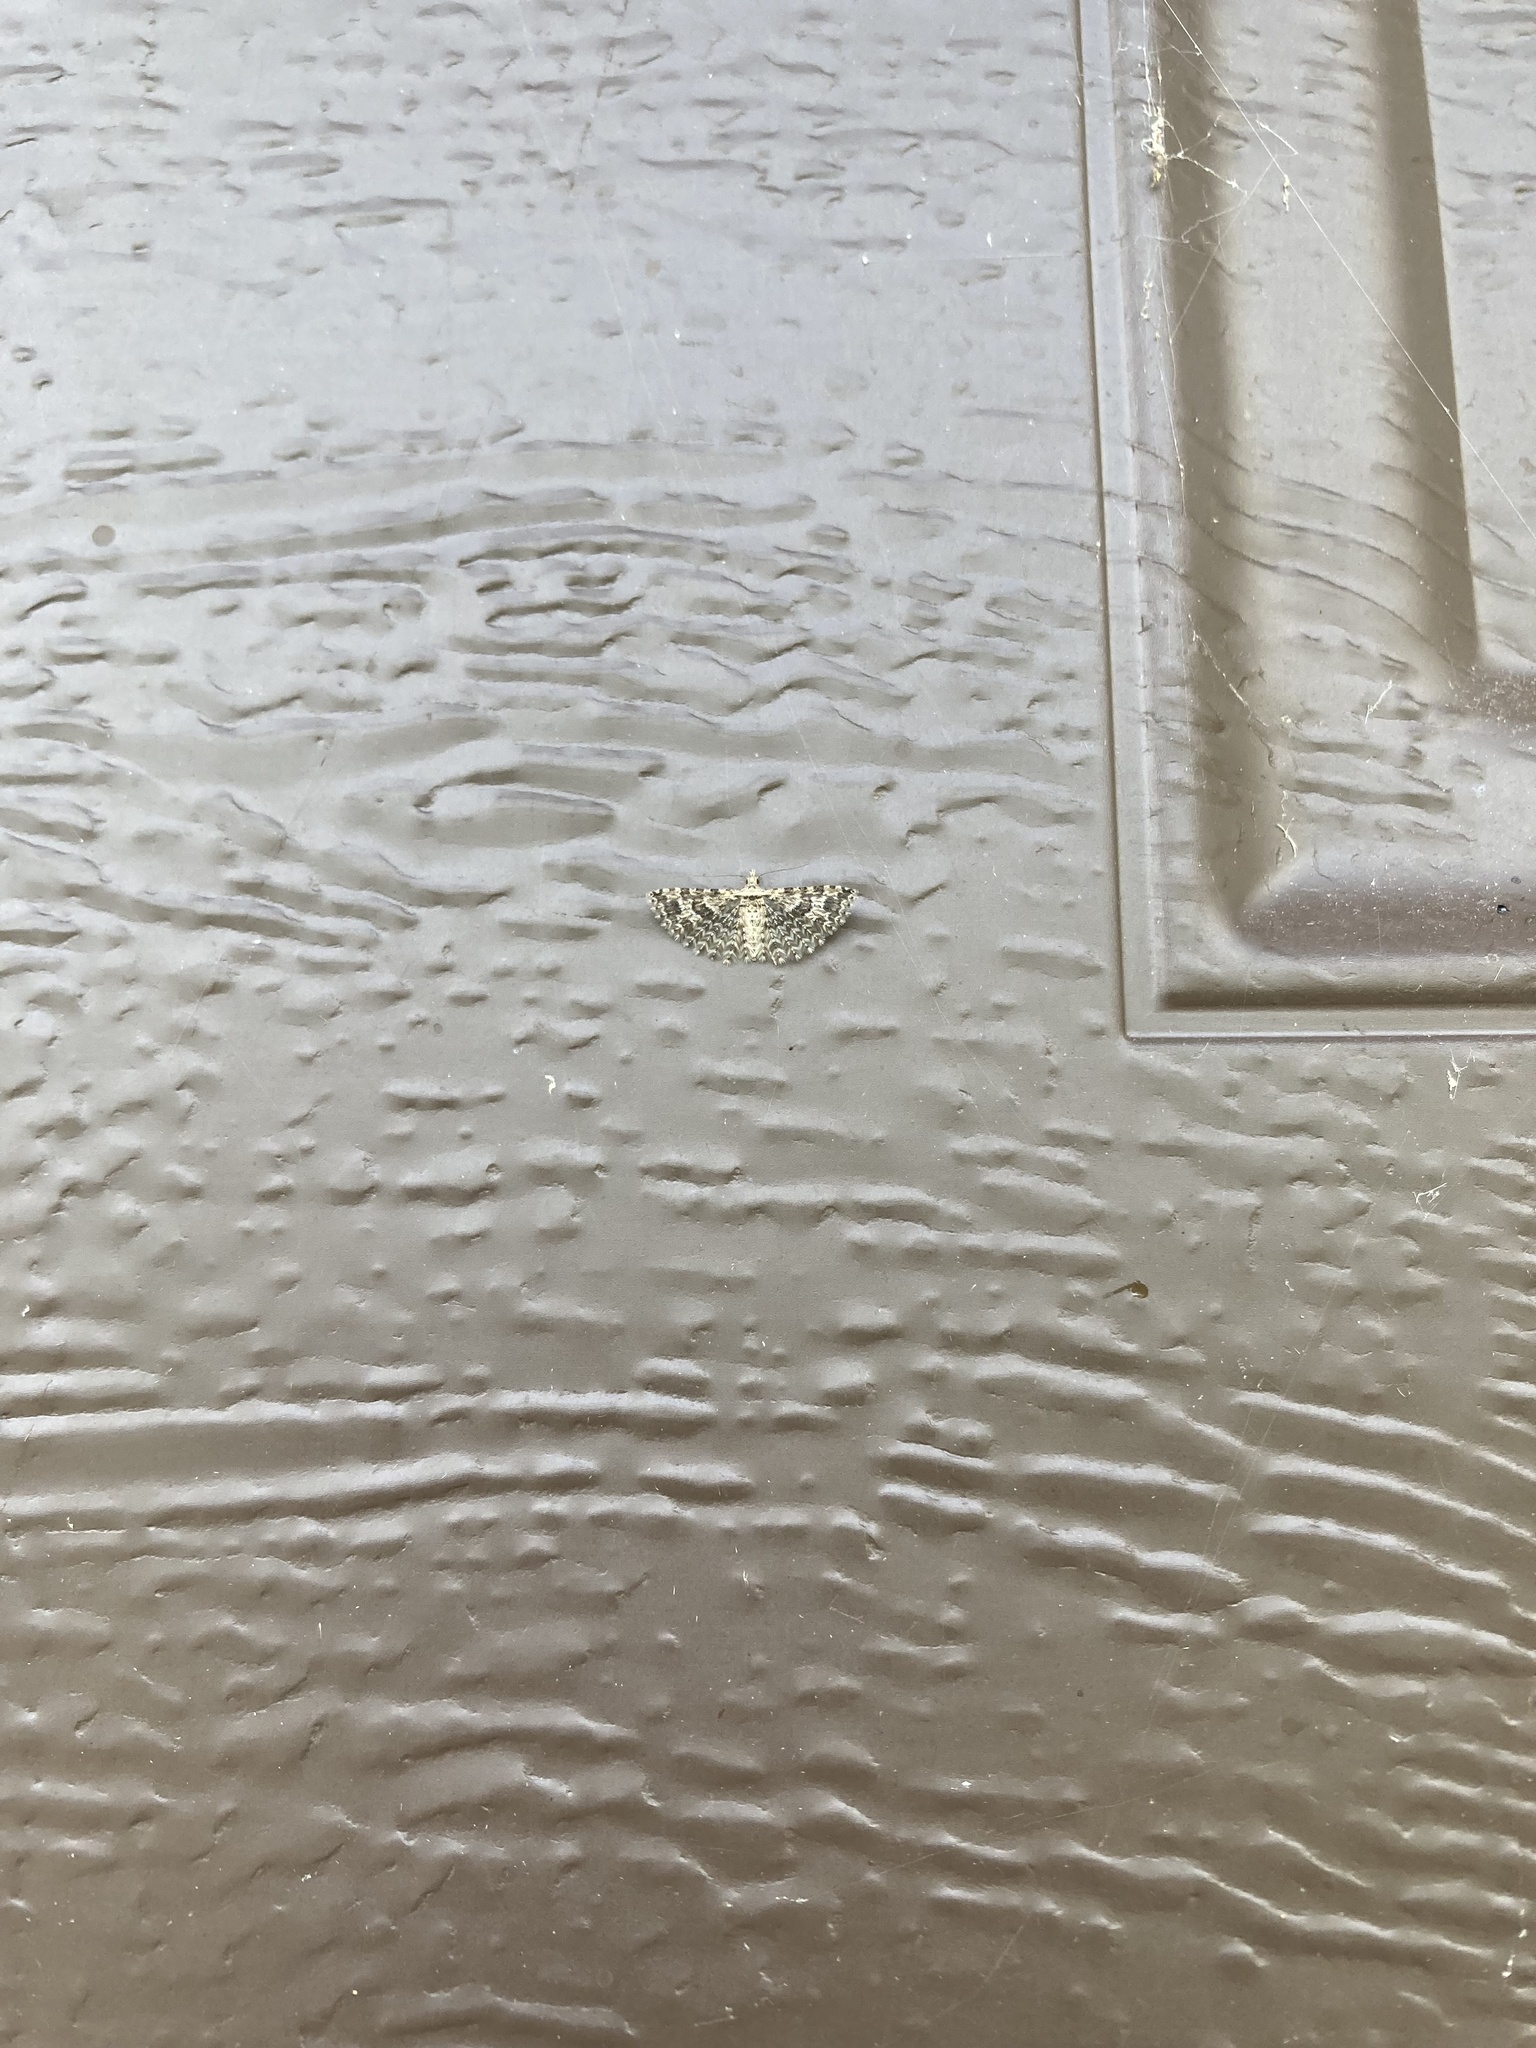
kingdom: Animalia
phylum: Arthropoda
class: Insecta
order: Lepidoptera
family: Alucitidae
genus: Alucita
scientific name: Alucita
